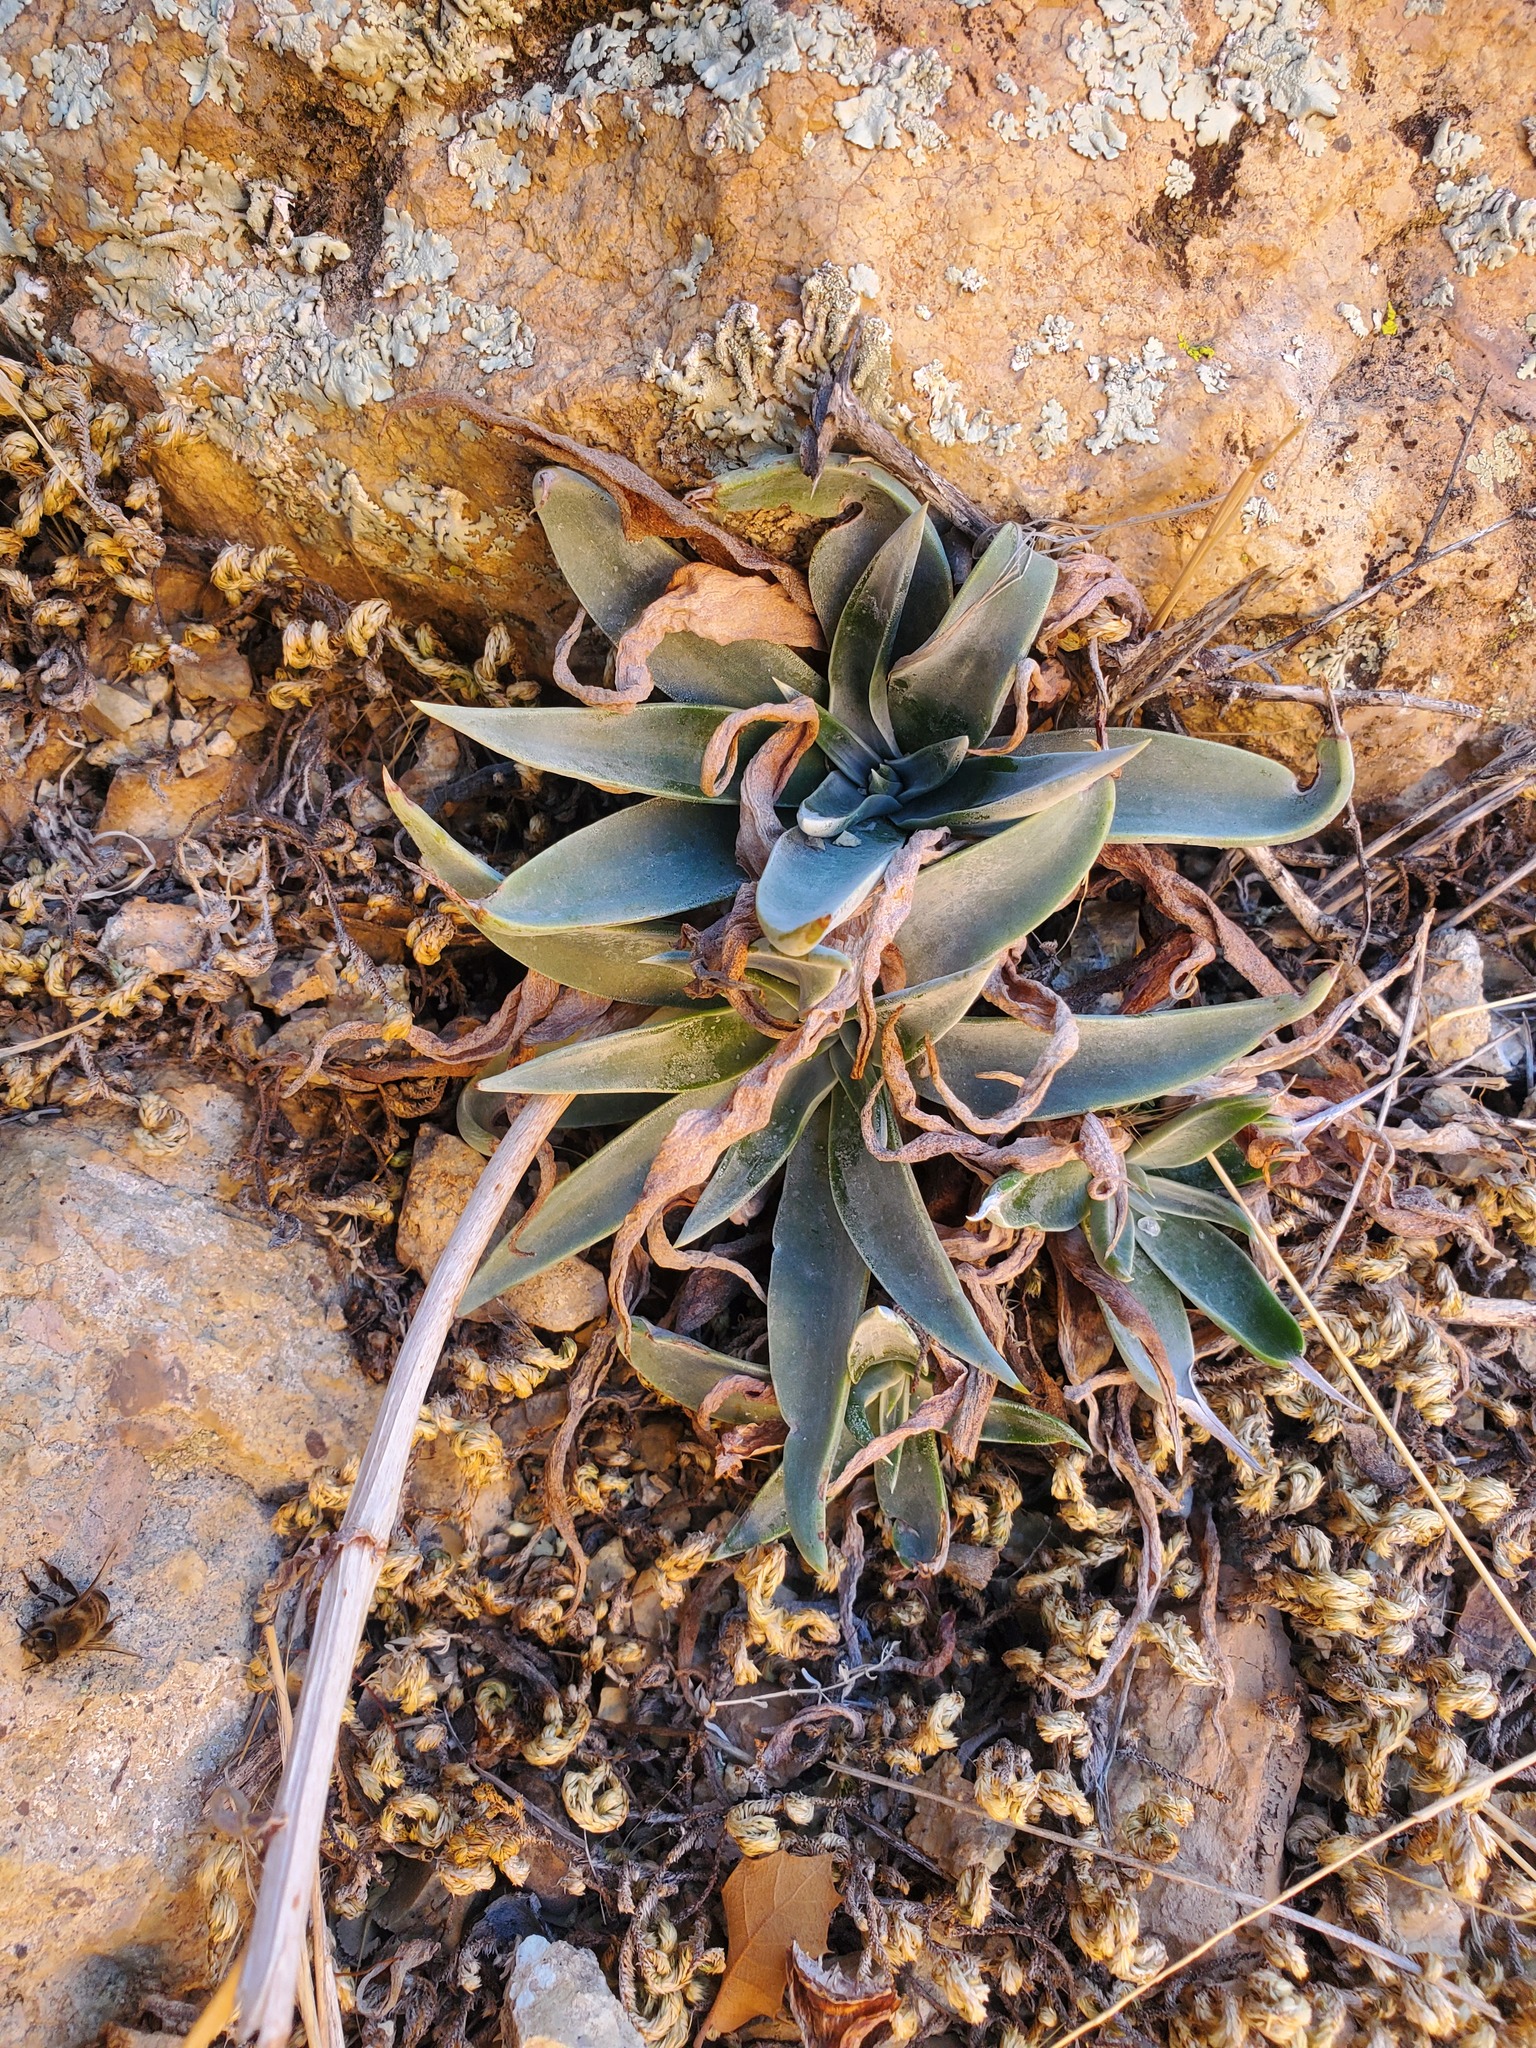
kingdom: Plantae
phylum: Tracheophyta
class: Magnoliopsida
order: Saxifragales
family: Crassulaceae
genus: Dudleya
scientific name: Dudleya collomiae
